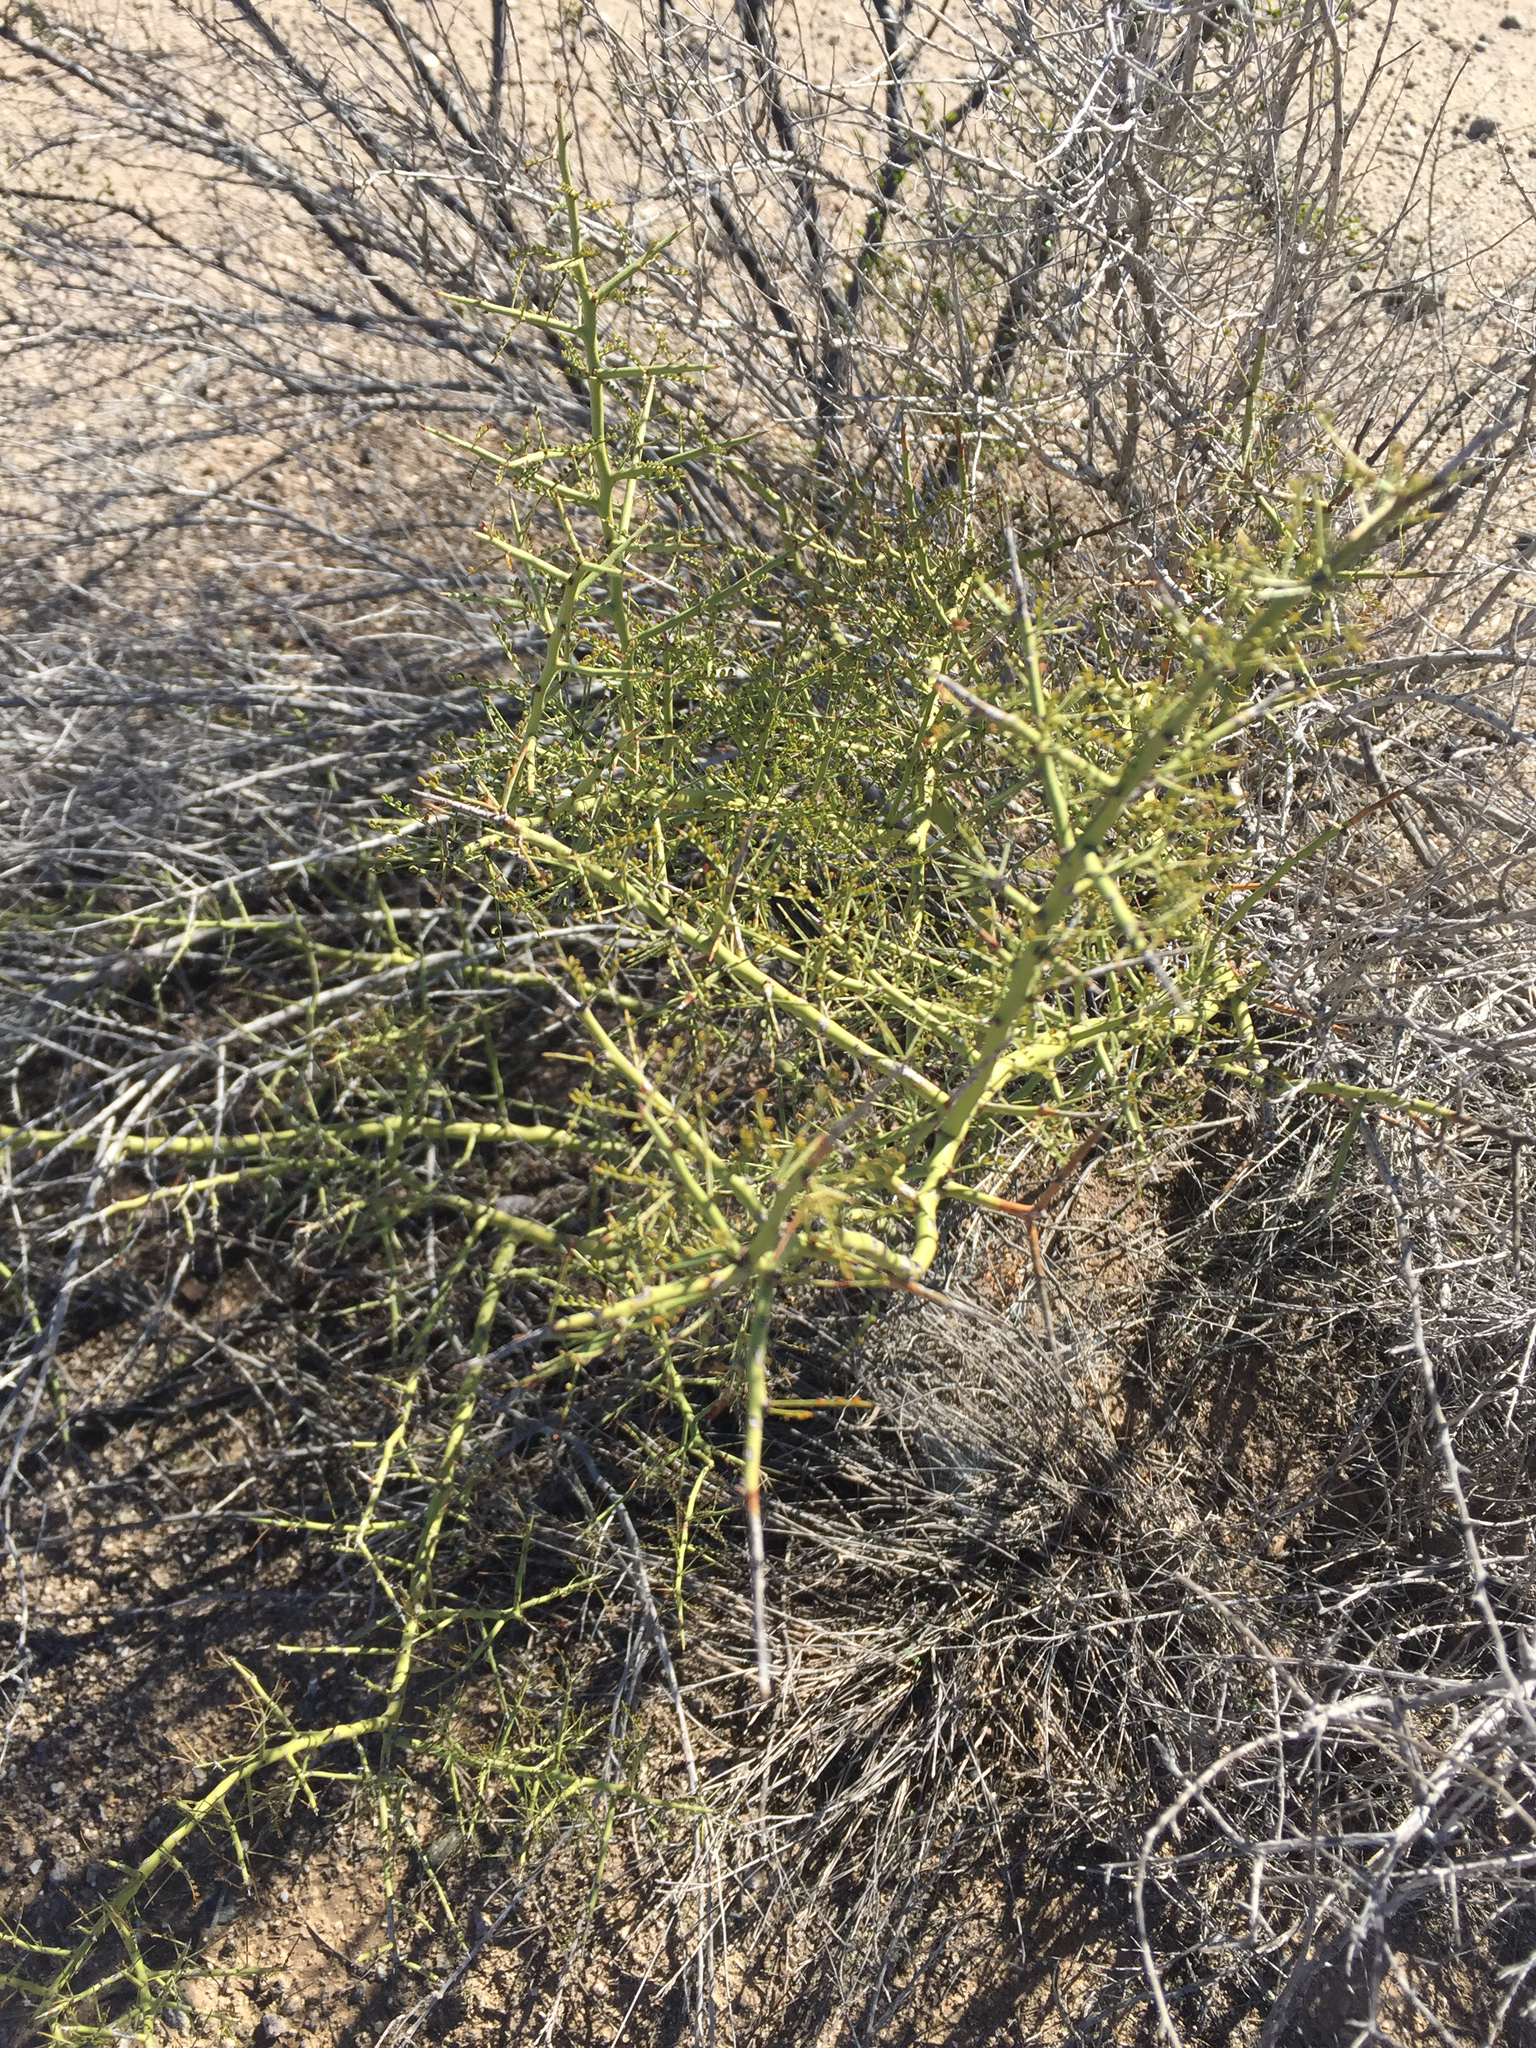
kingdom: Plantae
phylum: Tracheophyta
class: Magnoliopsida
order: Fabales
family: Fabaceae
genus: Parkinsonia
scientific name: Parkinsonia microphylla
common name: Yellow paloverde
